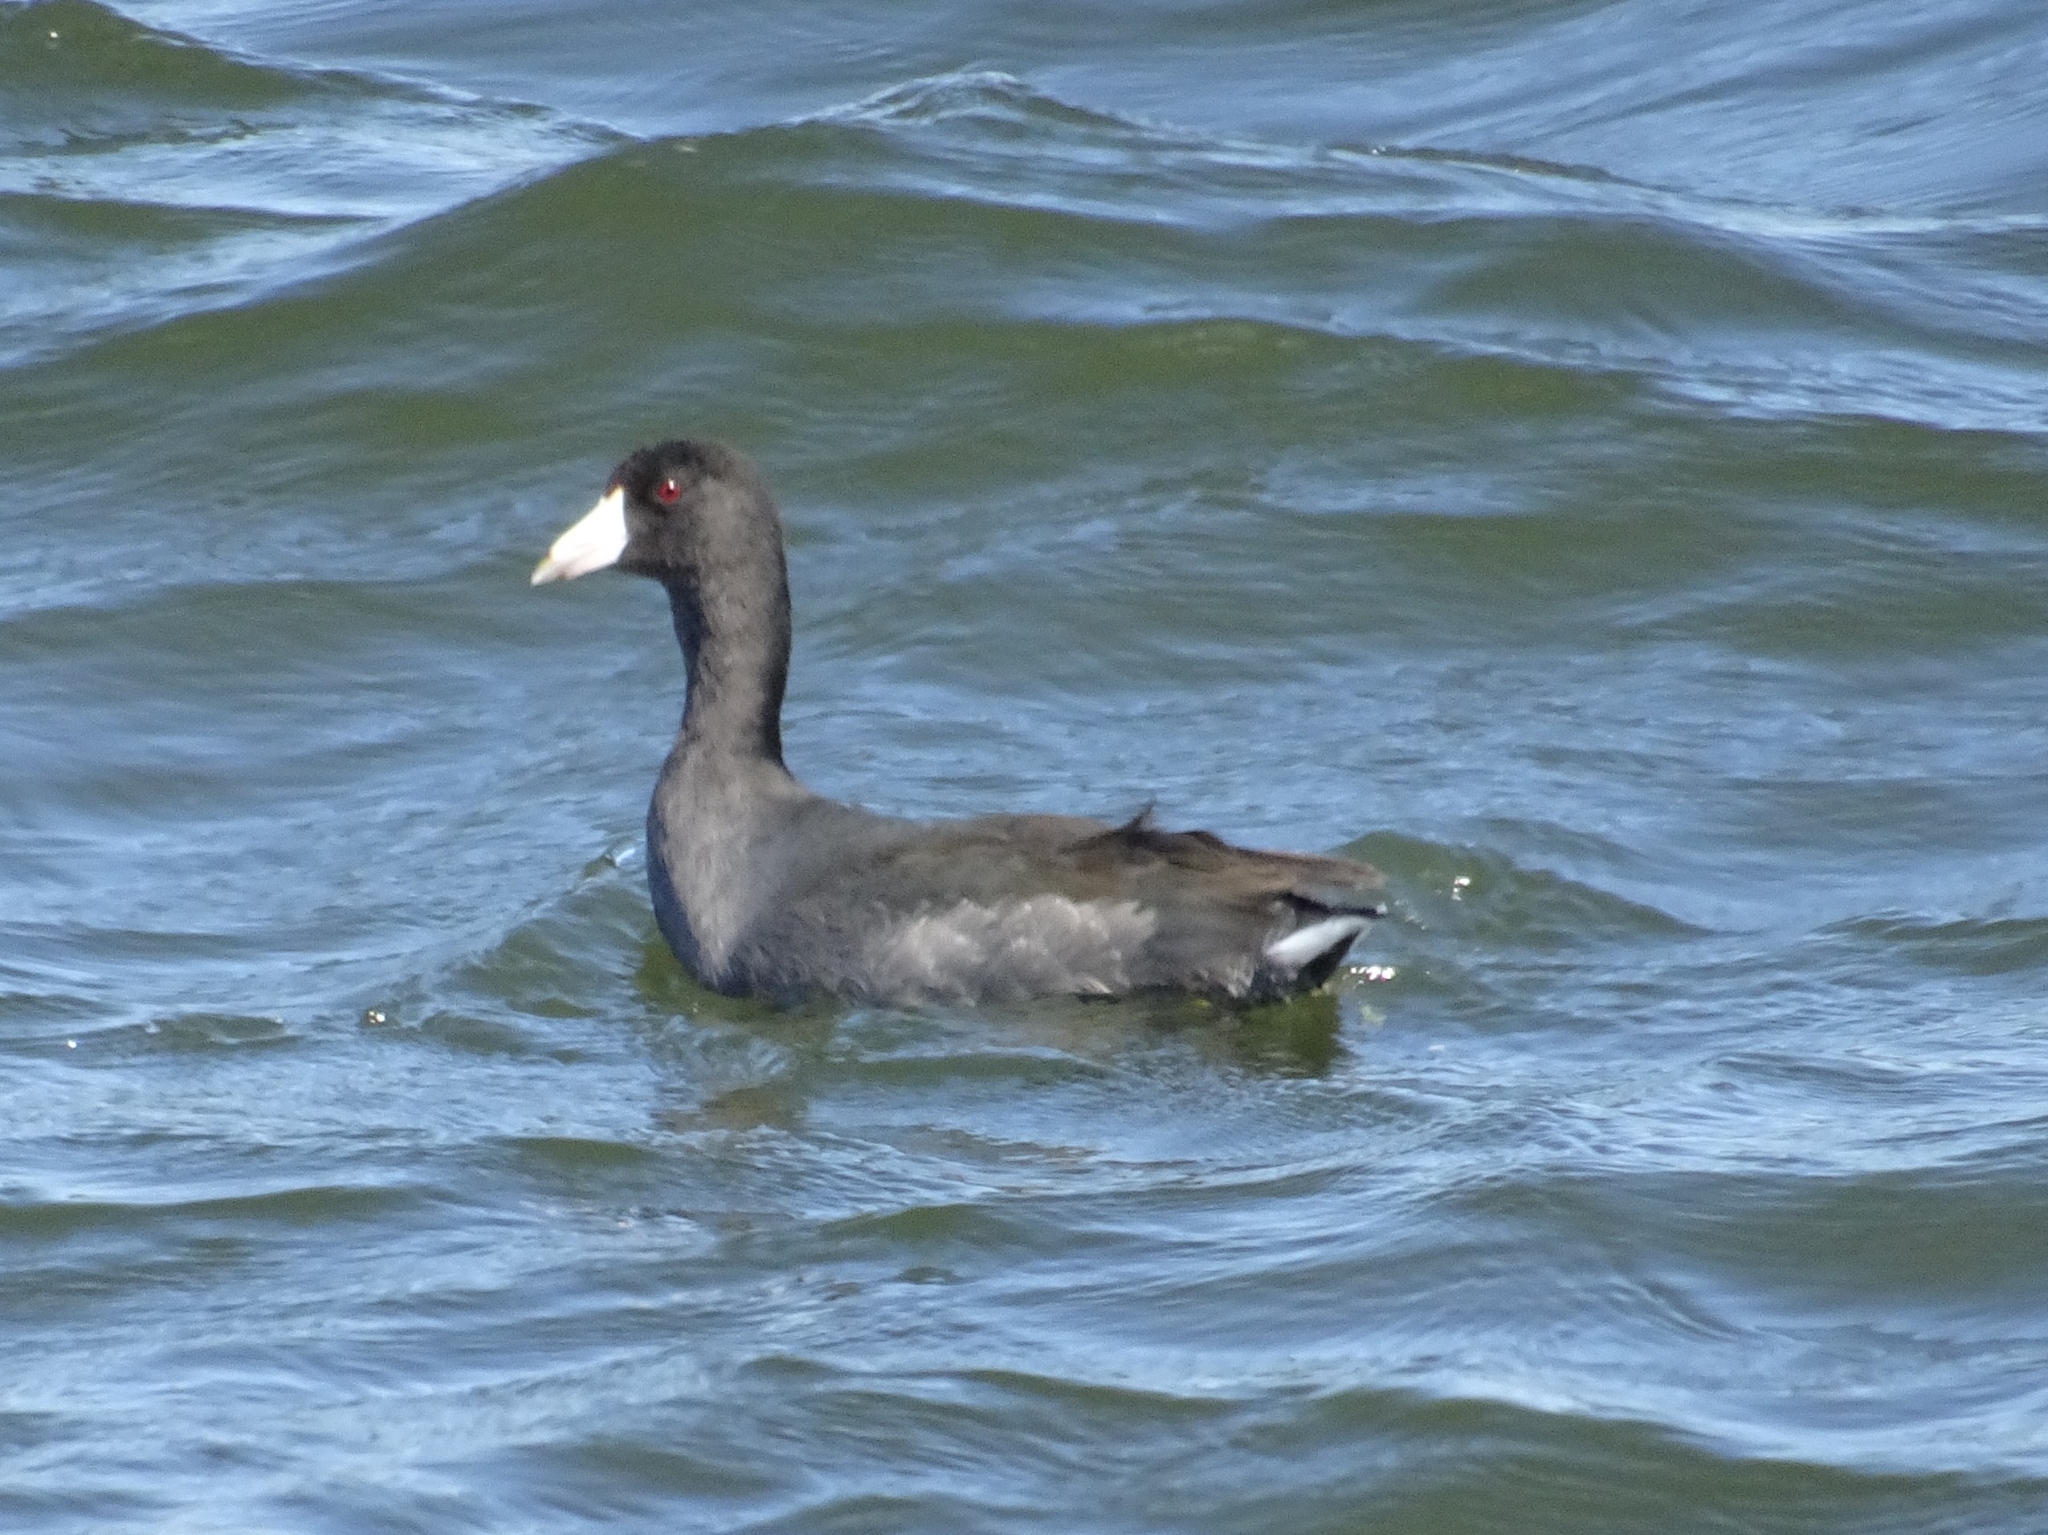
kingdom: Animalia
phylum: Chordata
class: Aves
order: Gruiformes
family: Rallidae
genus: Fulica
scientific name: Fulica americana
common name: American coot
